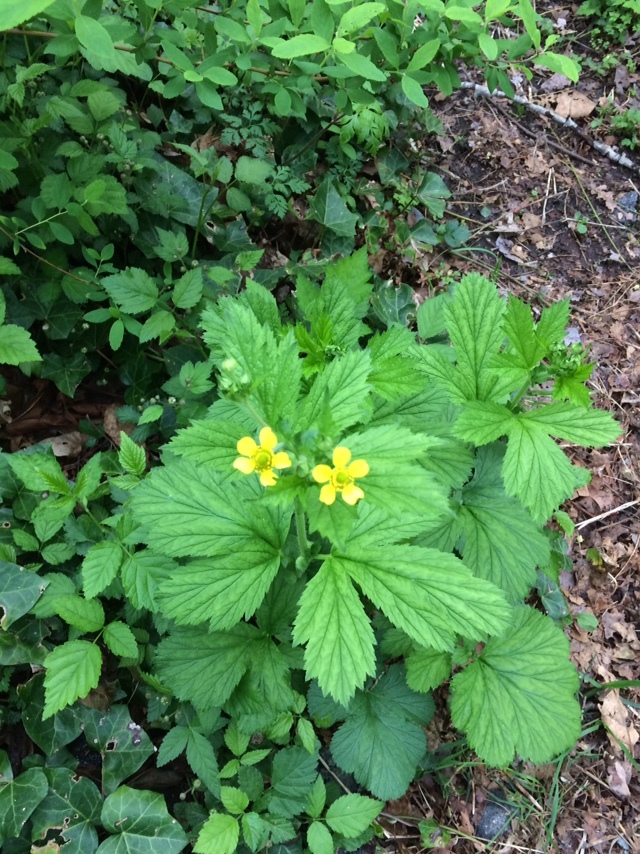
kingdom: Plantae
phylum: Tracheophyta
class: Magnoliopsida
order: Rosales
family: Rosaceae
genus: Geum
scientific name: Geum macrophyllum
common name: Large-leaved avens
